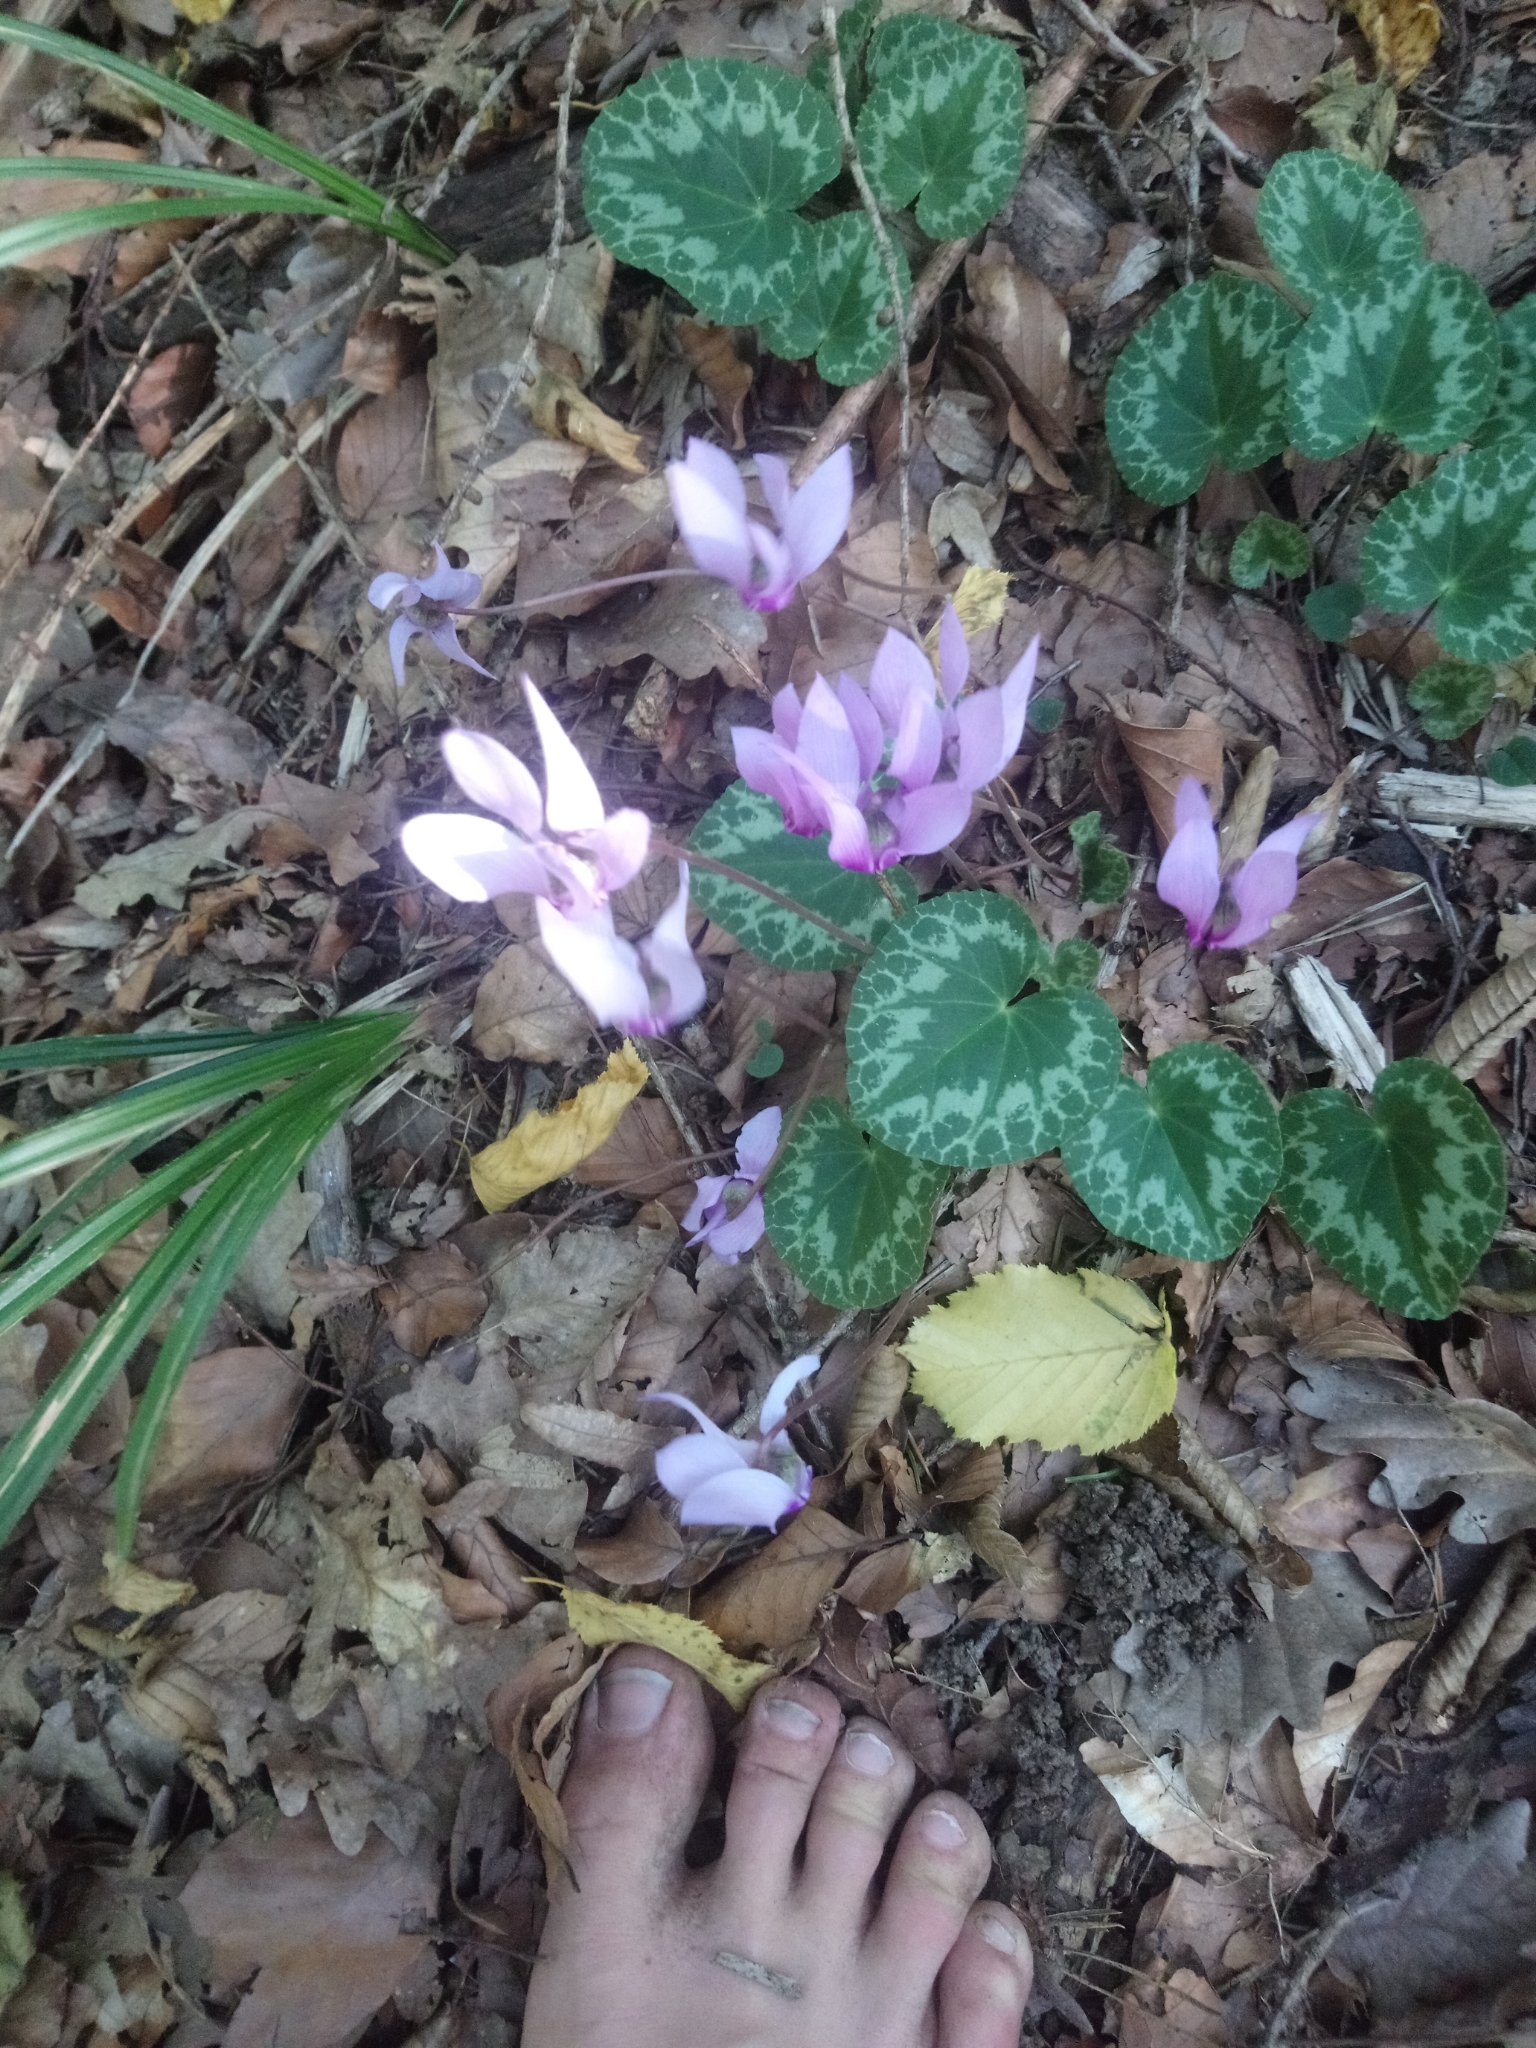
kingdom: Plantae
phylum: Tracheophyta
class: Magnoliopsida
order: Ericales
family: Primulaceae
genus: Cyclamen
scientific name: Cyclamen purpurascens
